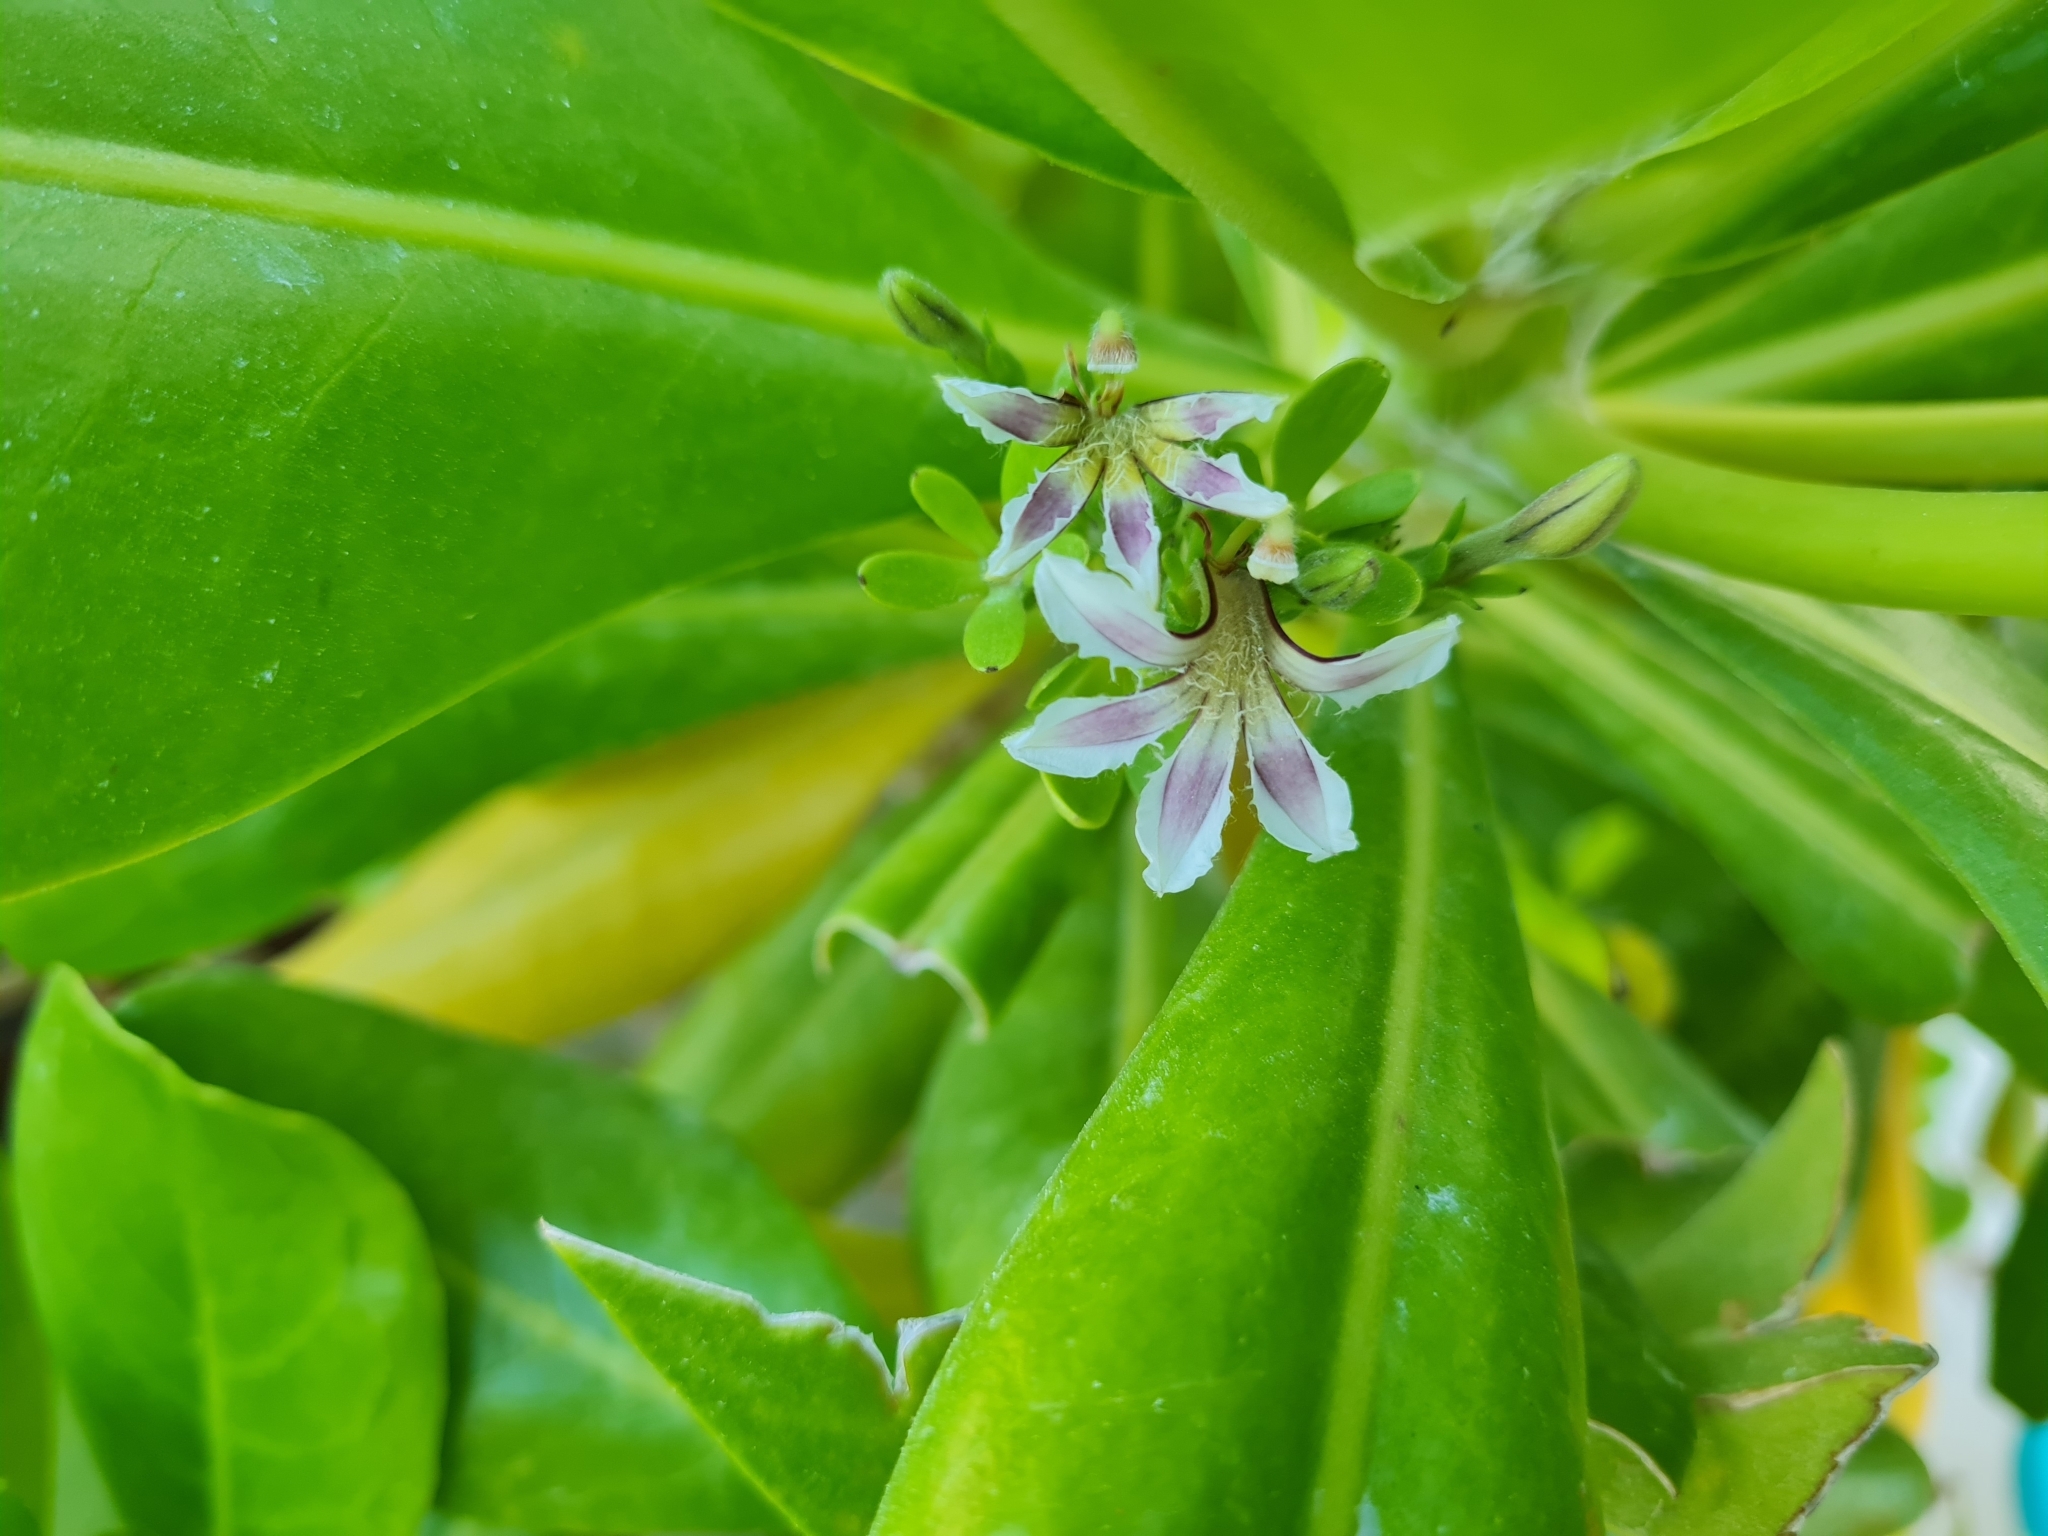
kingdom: Plantae
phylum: Tracheophyta
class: Magnoliopsida
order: Asterales
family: Goodeniaceae
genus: Scaevola
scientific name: Scaevola taccada
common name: Sea lettucetree
